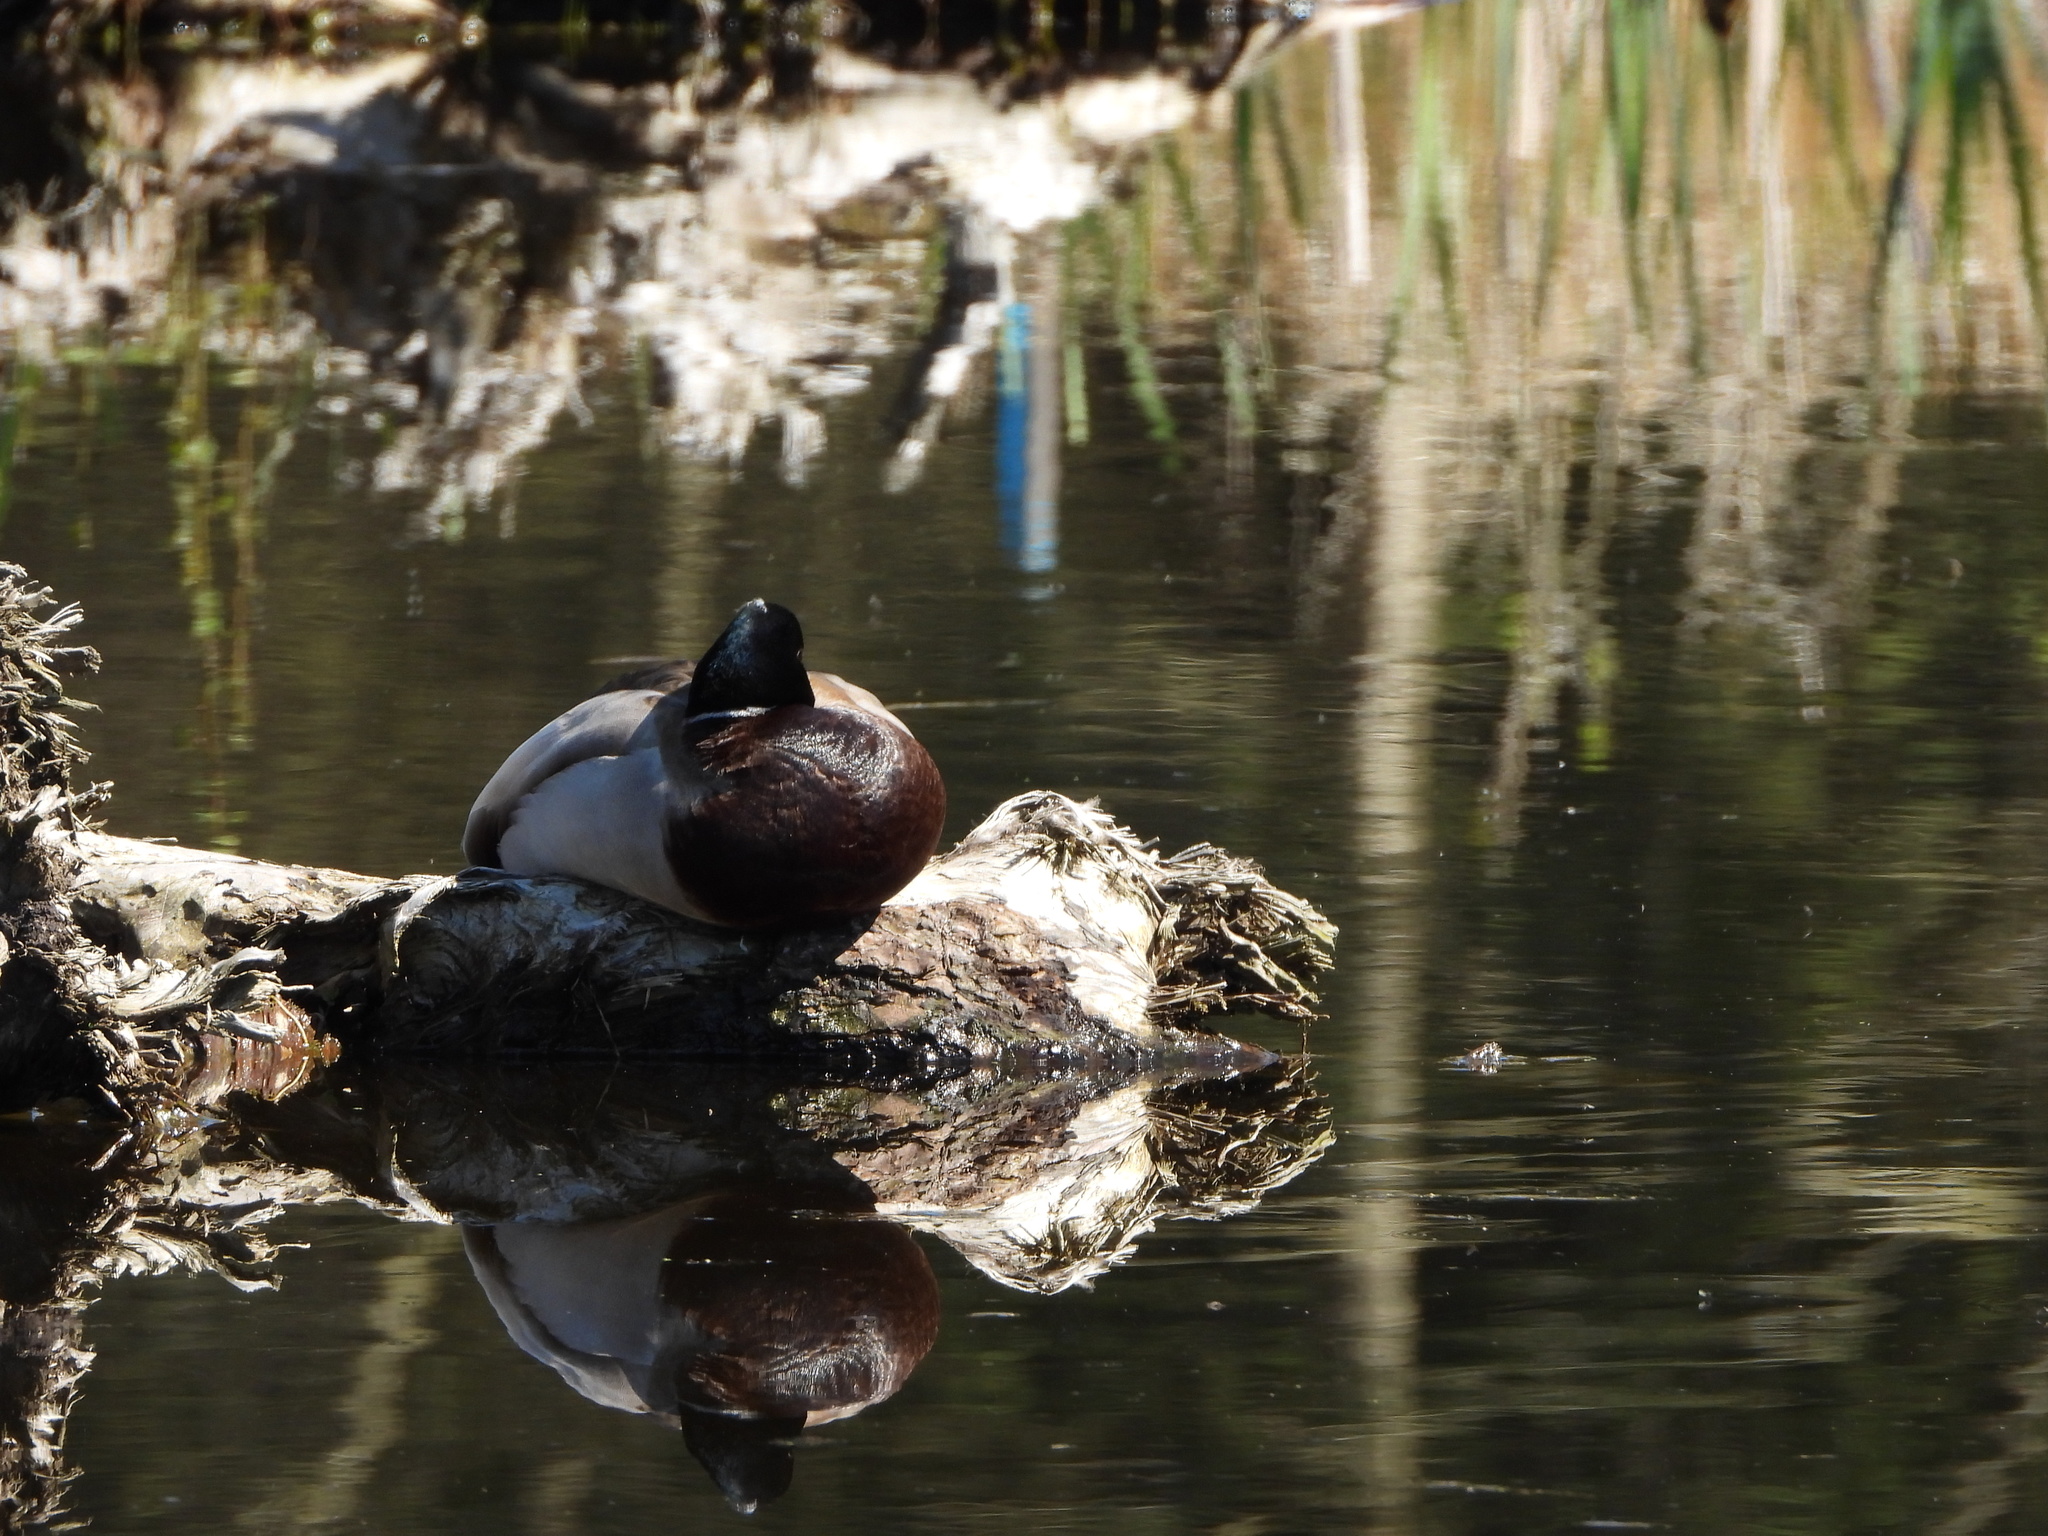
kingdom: Animalia
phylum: Chordata
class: Aves
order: Anseriformes
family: Anatidae
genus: Anas
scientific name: Anas platyrhynchos
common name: Mallard
